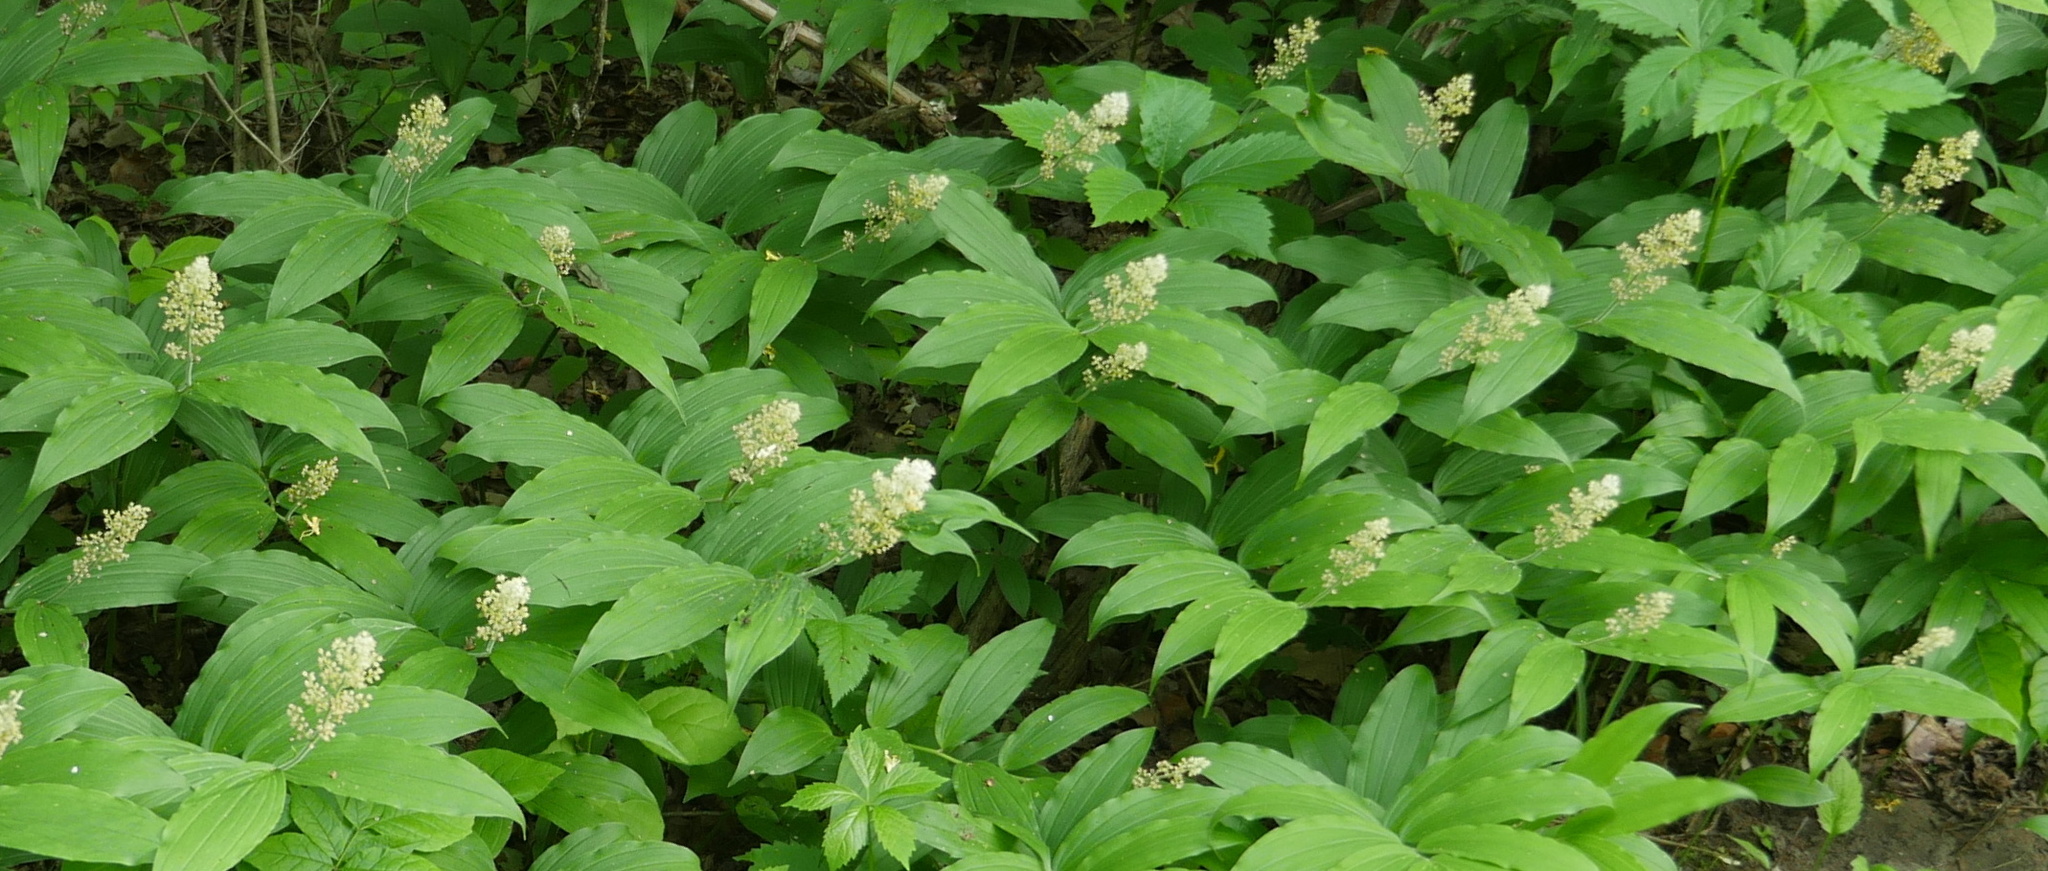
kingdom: Plantae
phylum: Tracheophyta
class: Liliopsida
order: Asparagales
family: Asparagaceae
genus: Maianthemum
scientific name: Maianthemum racemosum
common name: False spikenard
